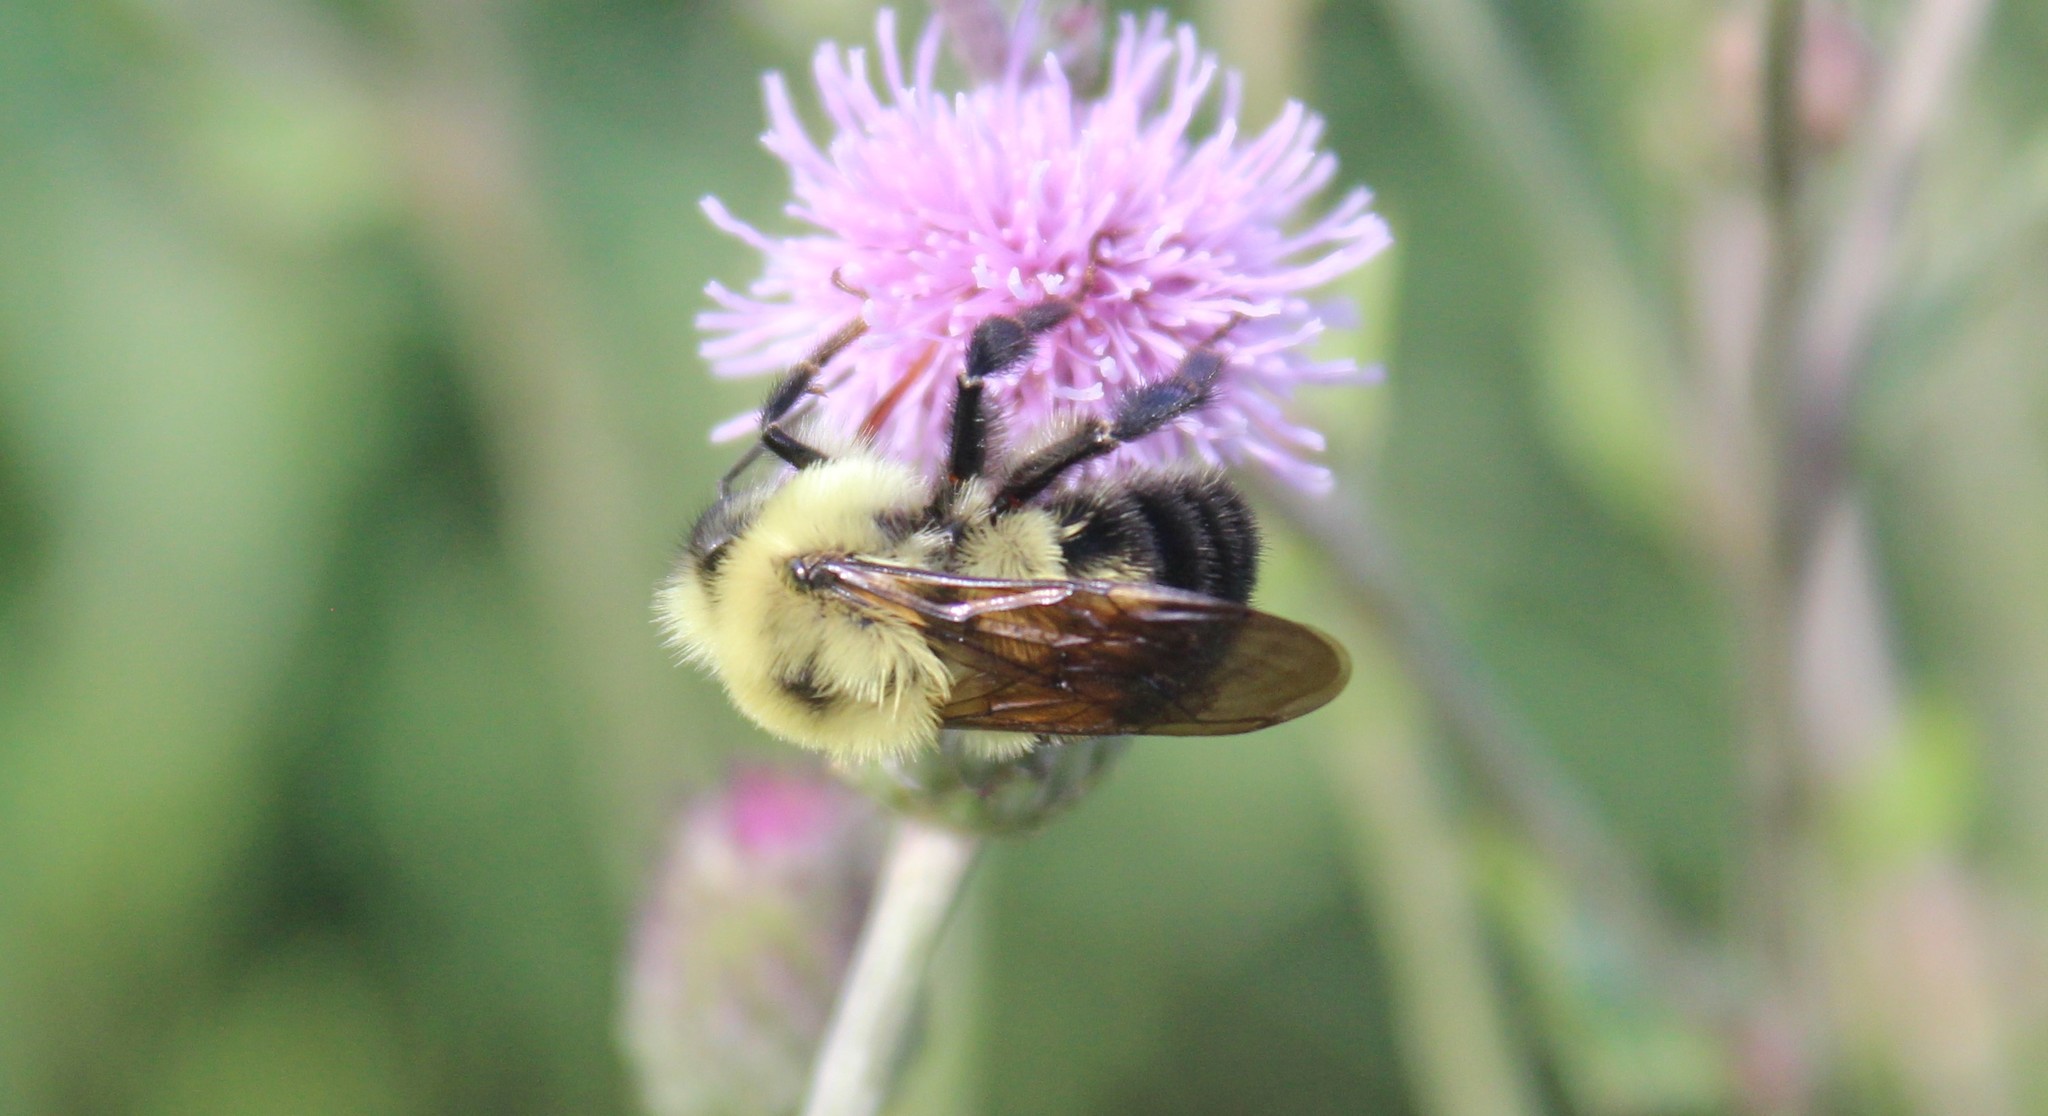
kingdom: Animalia
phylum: Arthropoda
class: Insecta
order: Hymenoptera
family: Apidae
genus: Bombus
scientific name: Bombus bimaculatus
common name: Two-spotted bumble bee
